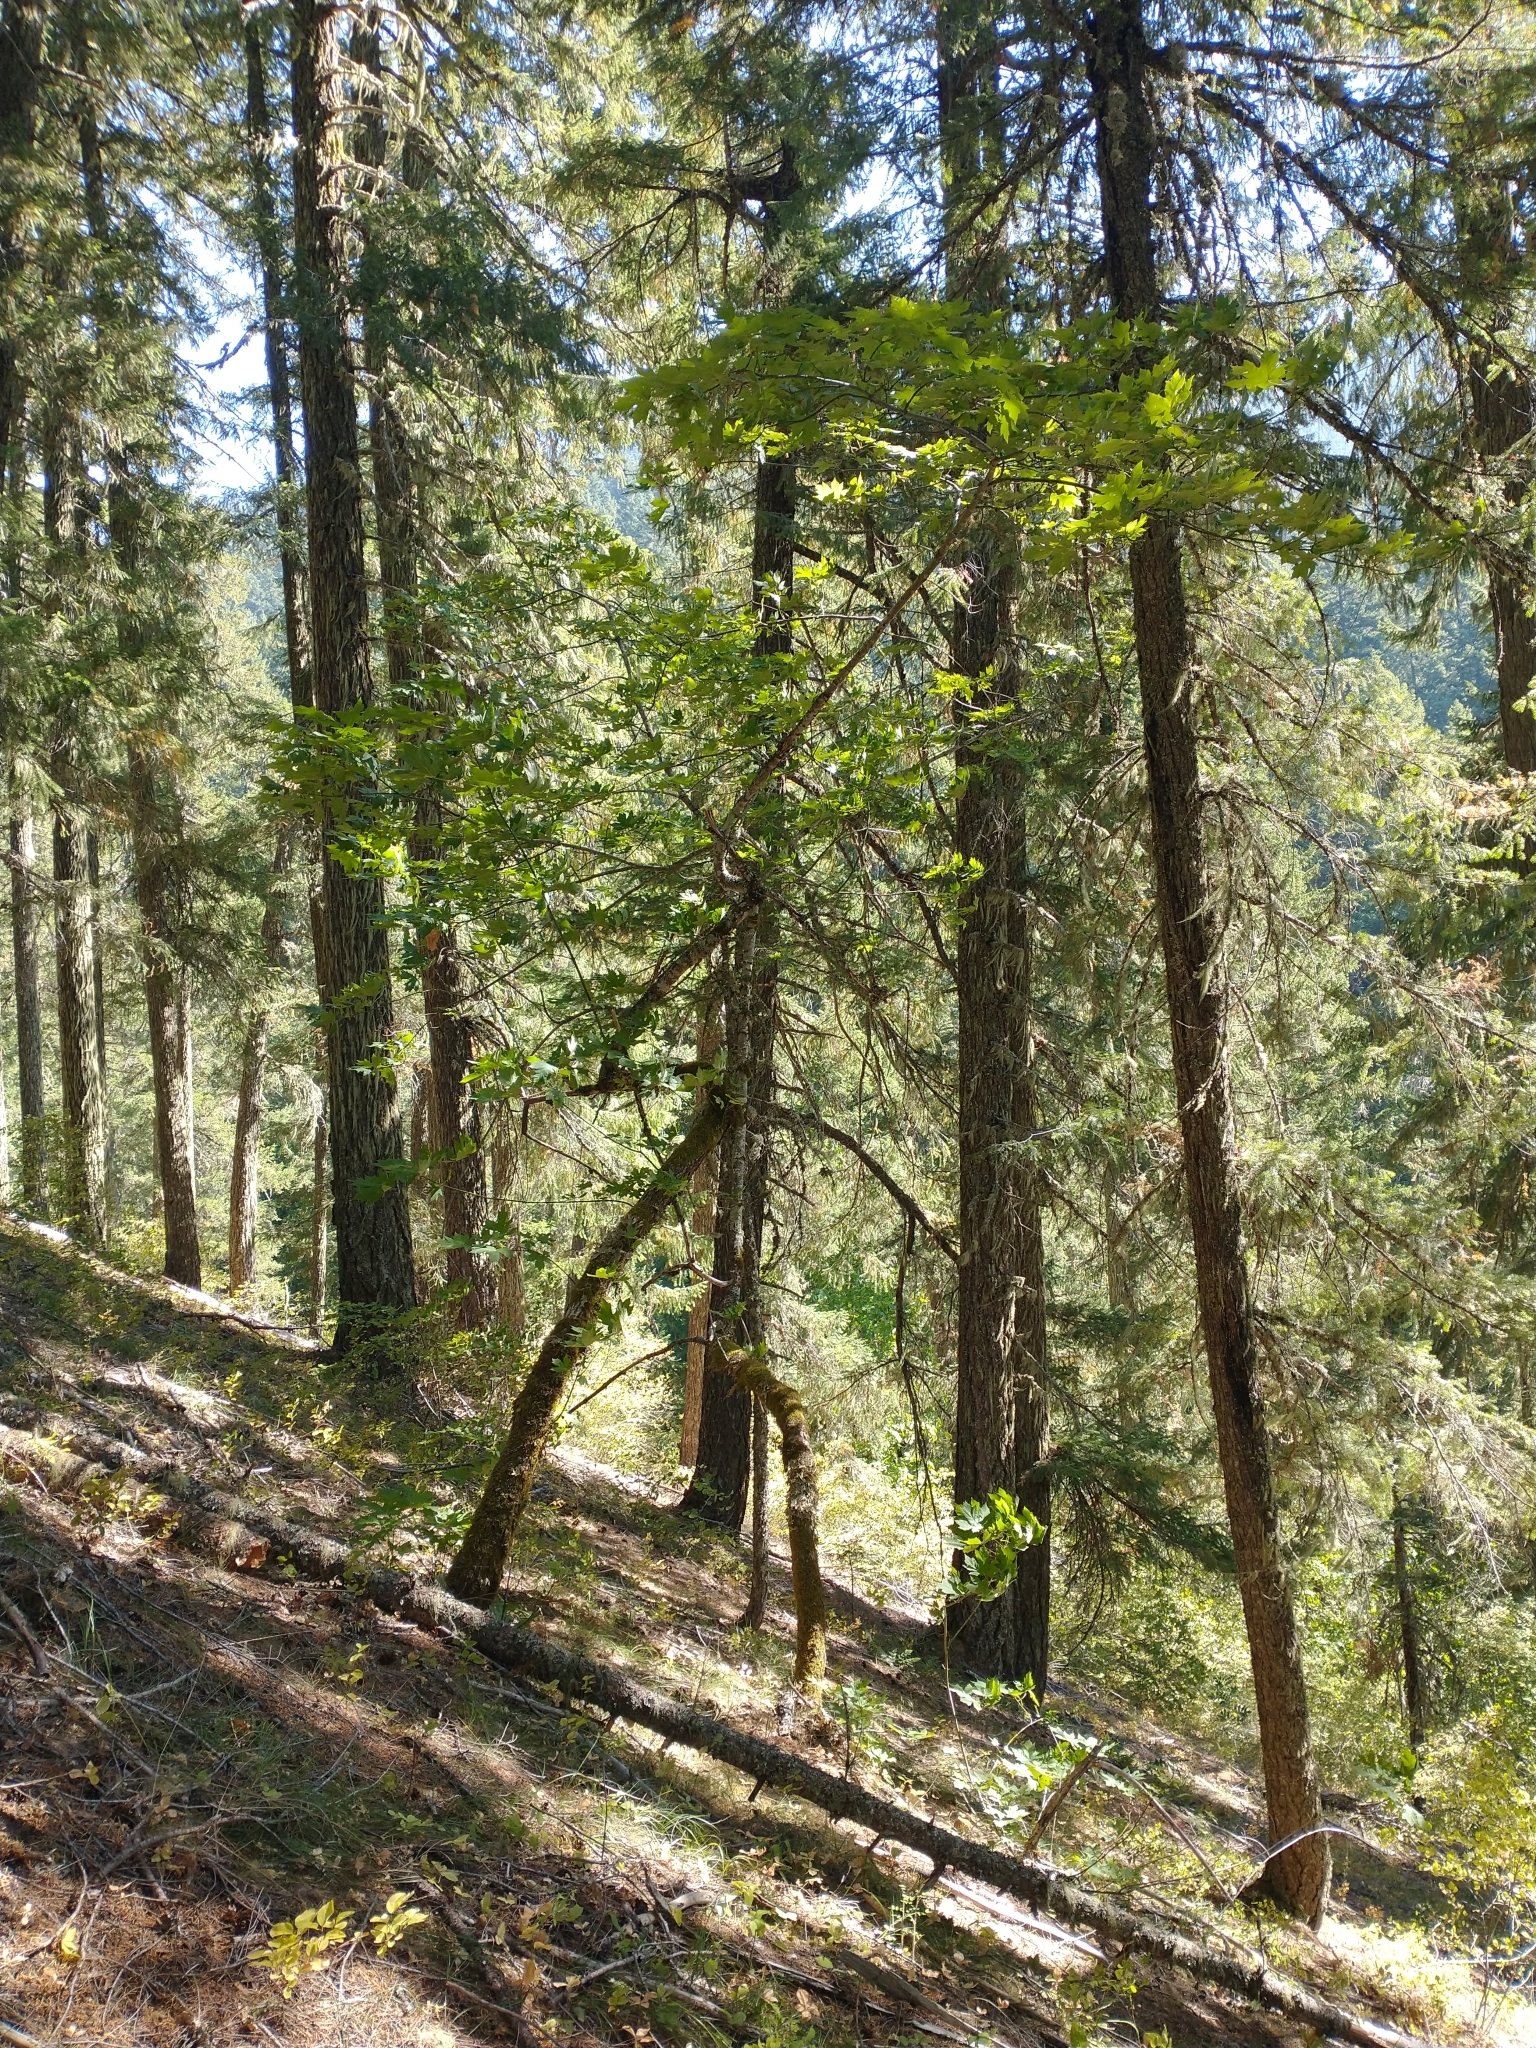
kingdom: Plantae
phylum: Tracheophyta
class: Magnoliopsida
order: Sapindales
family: Sapindaceae
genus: Acer
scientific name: Acer macrophyllum
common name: Oregon maple
